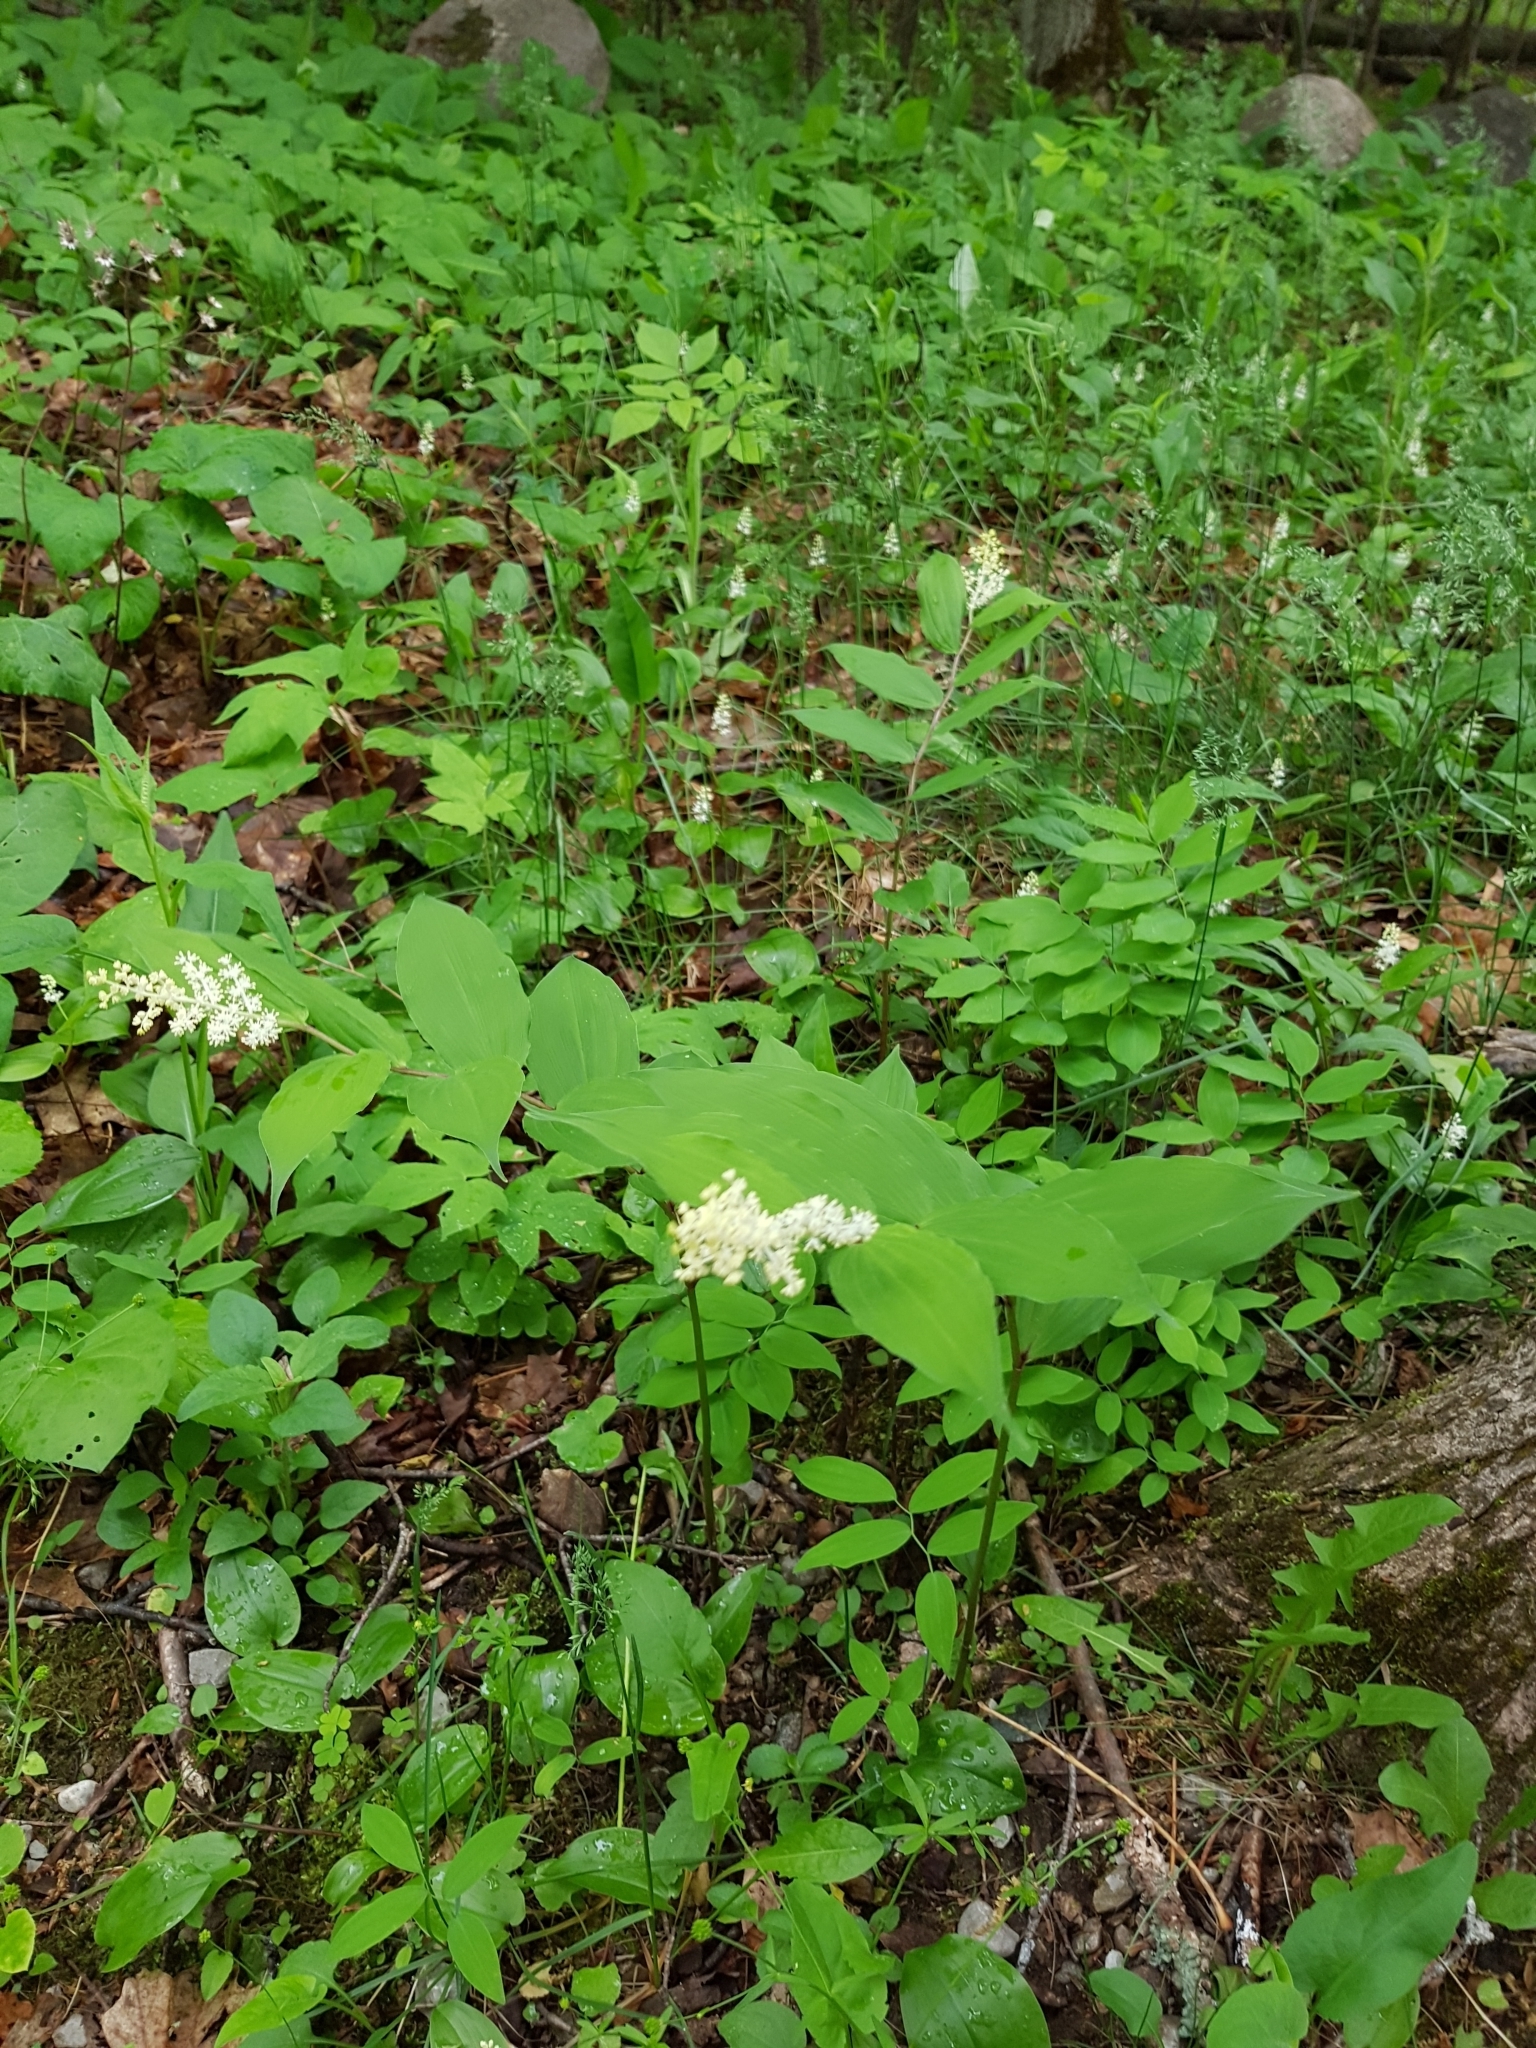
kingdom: Plantae
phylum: Tracheophyta
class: Liliopsida
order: Asparagales
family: Asparagaceae
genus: Maianthemum
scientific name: Maianthemum racemosum
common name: False spikenard
